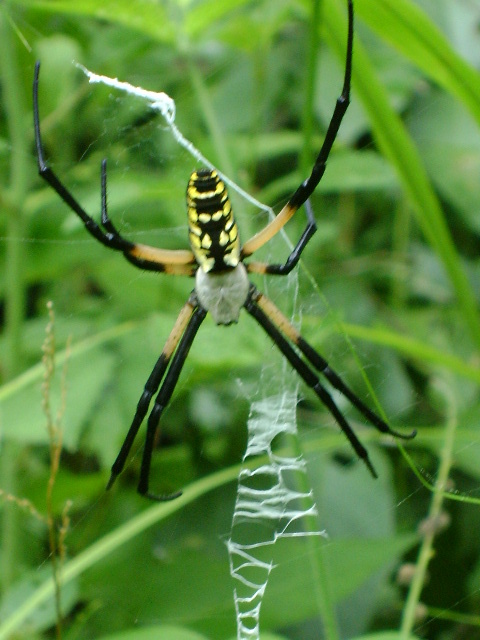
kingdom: Animalia
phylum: Arthropoda
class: Arachnida
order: Araneae
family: Araneidae
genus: Argiope
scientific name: Argiope aurantia
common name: Orb weavers
